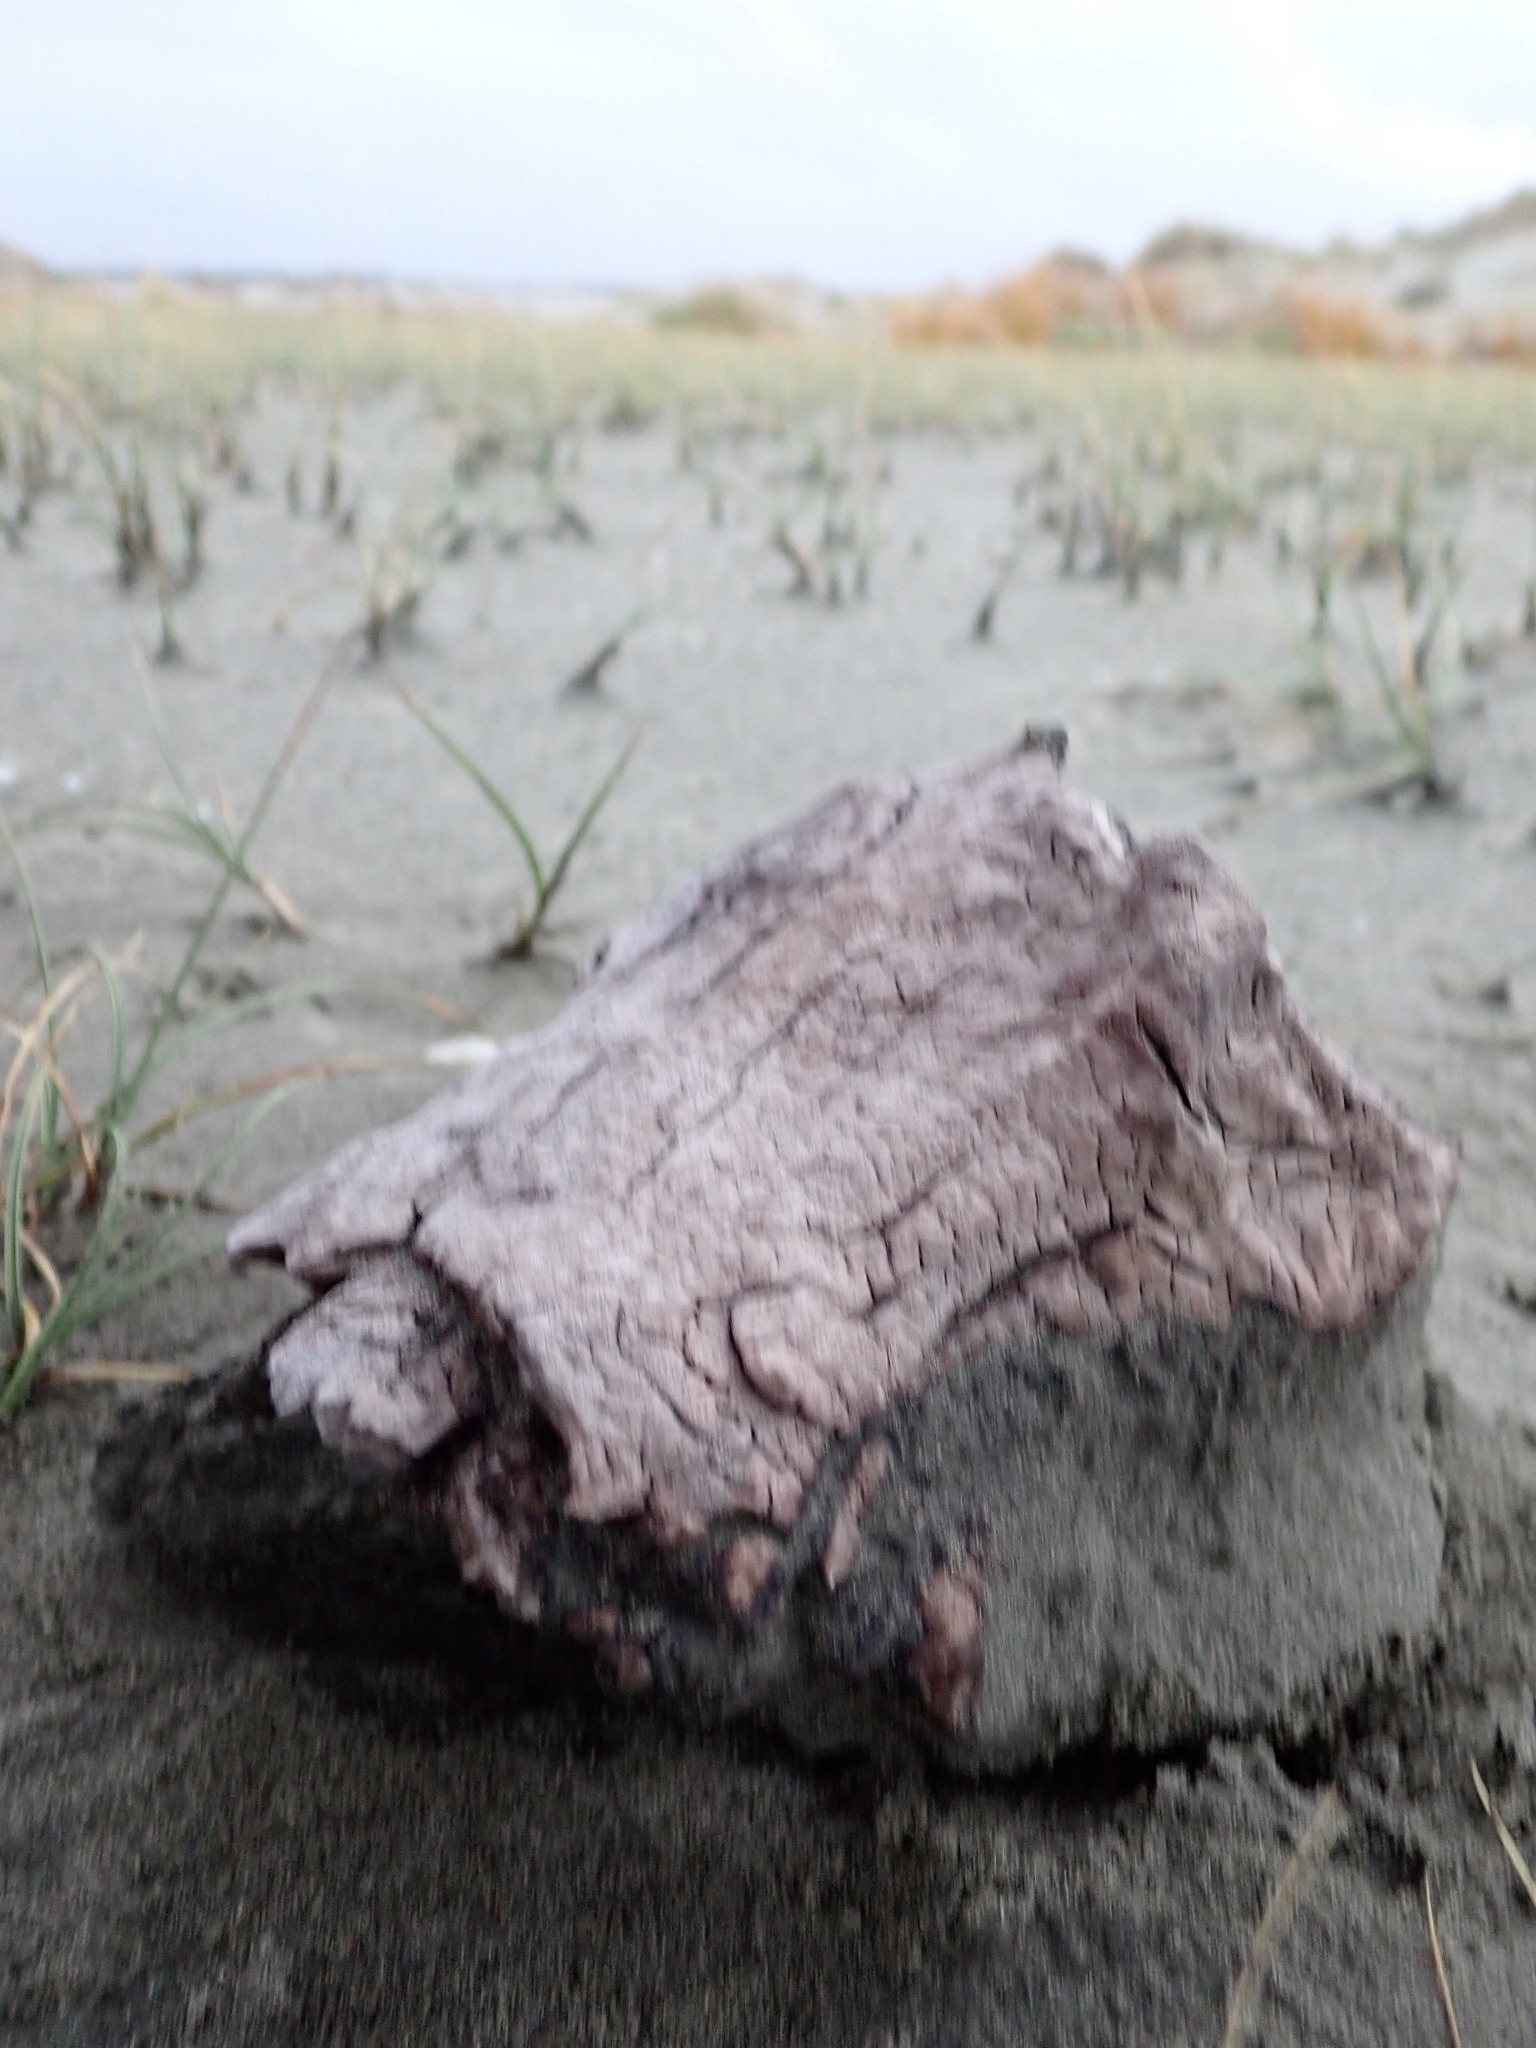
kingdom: Animalia
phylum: Arthropoda
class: Insecta
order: Dermaptera
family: Anisolabididae
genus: Anisolabis
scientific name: Anisolabis littorea
